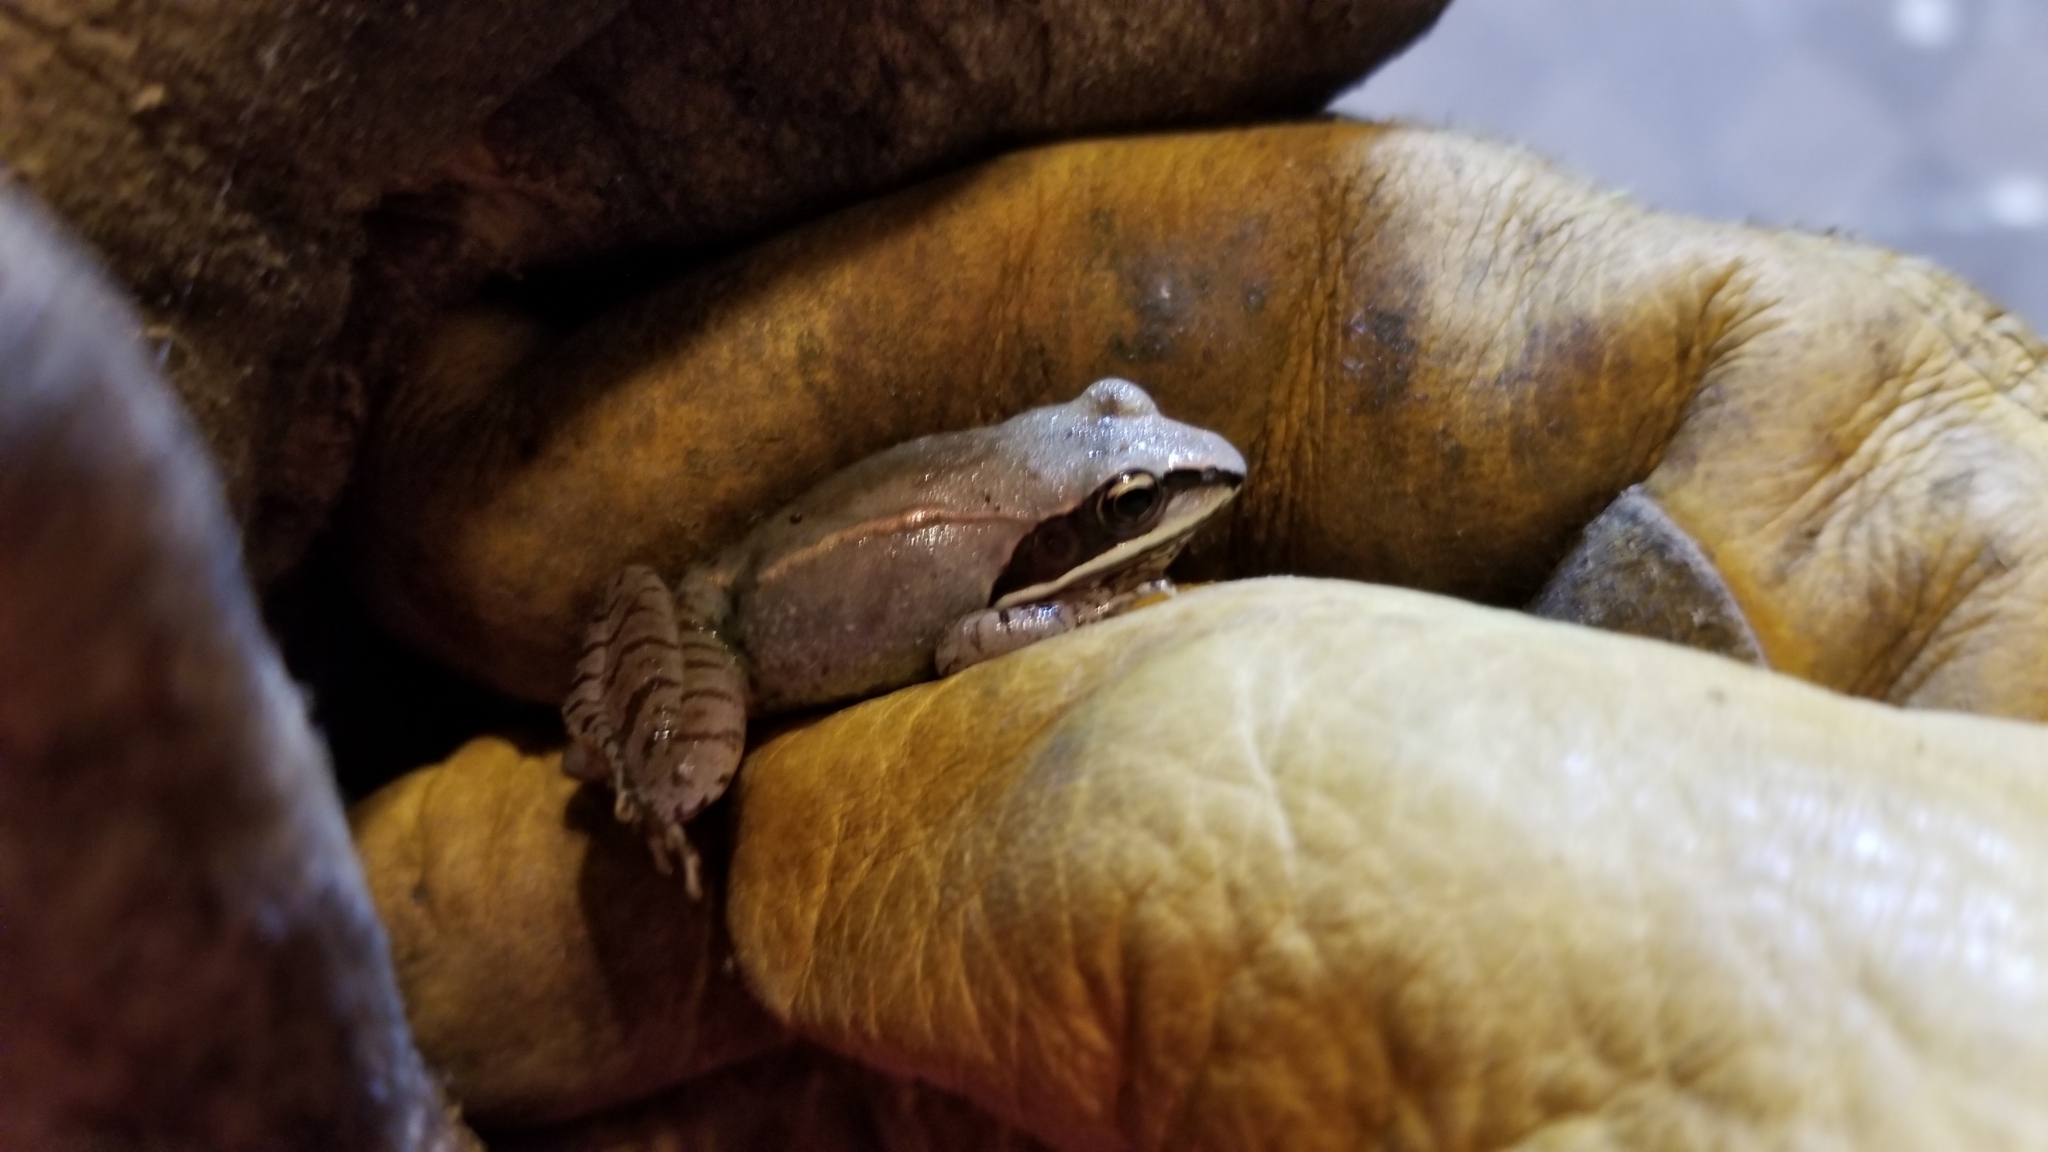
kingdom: Animalia
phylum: Chordata
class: Amphibia
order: Anura
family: Ranidae
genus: Lithobates
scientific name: Lithobates sylvaticus
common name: Wood frog
